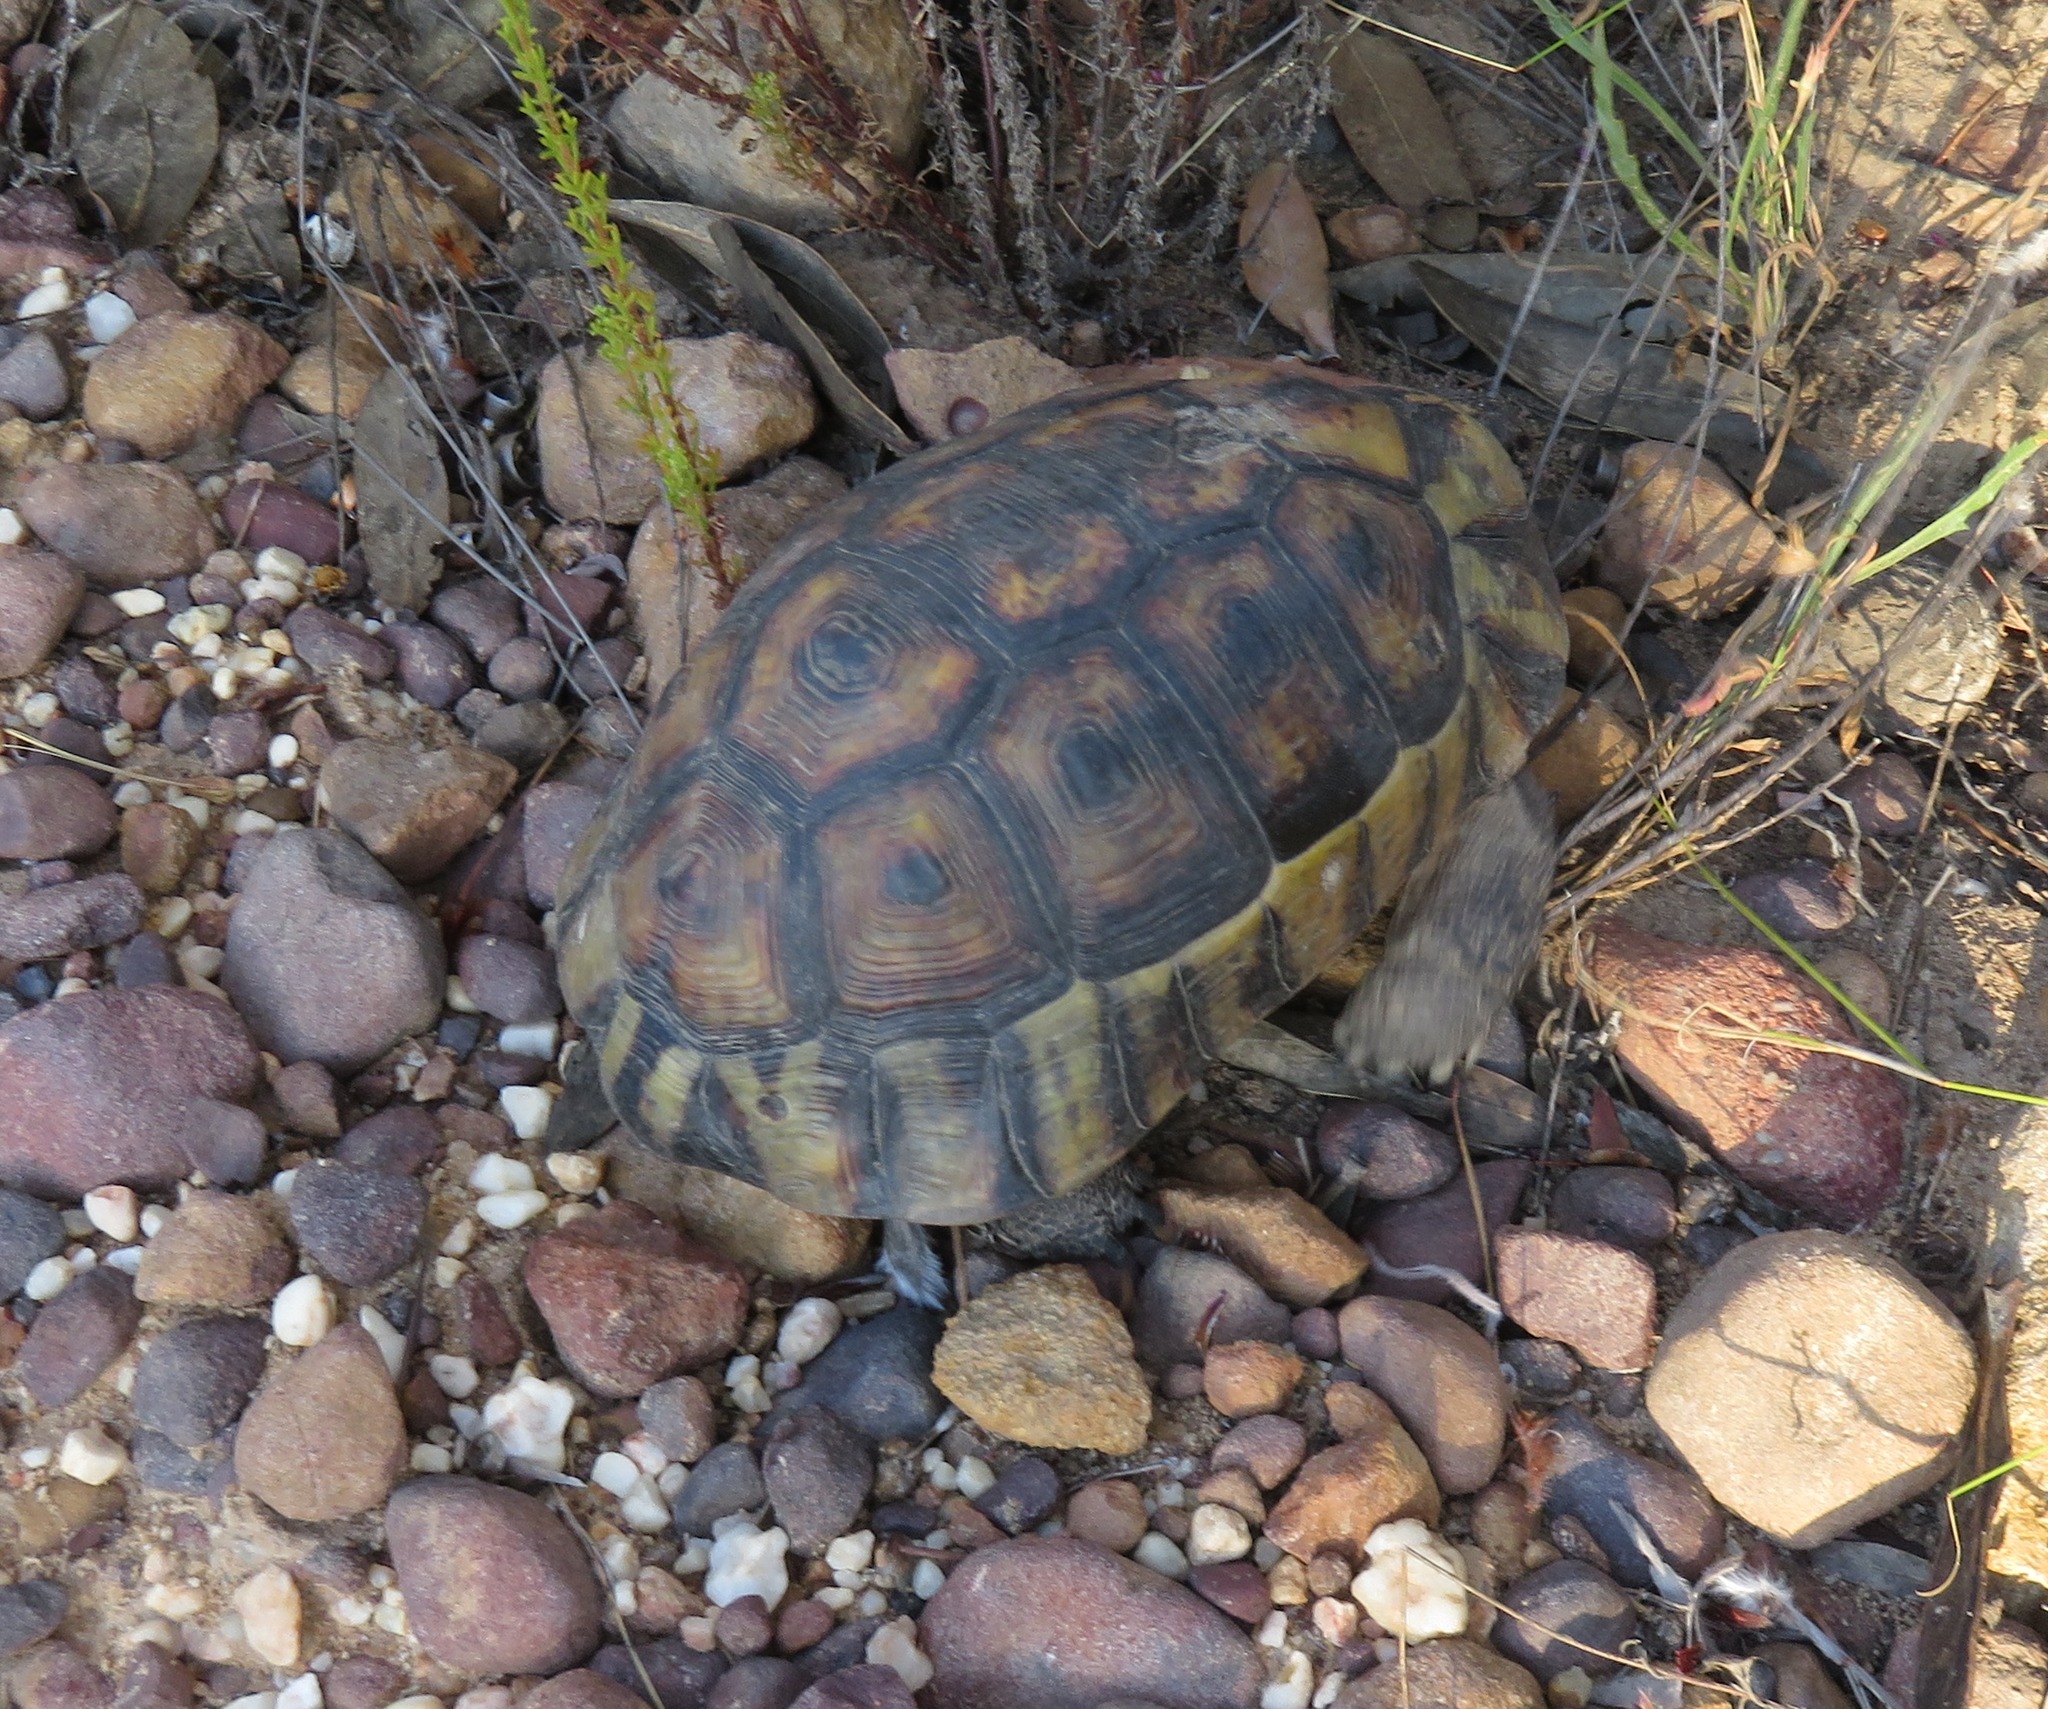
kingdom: Animalia
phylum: Chordata
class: Testudines
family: Testudinidae
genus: Chersina
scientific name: Chersina angulata
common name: South african bowsprit tortoise
